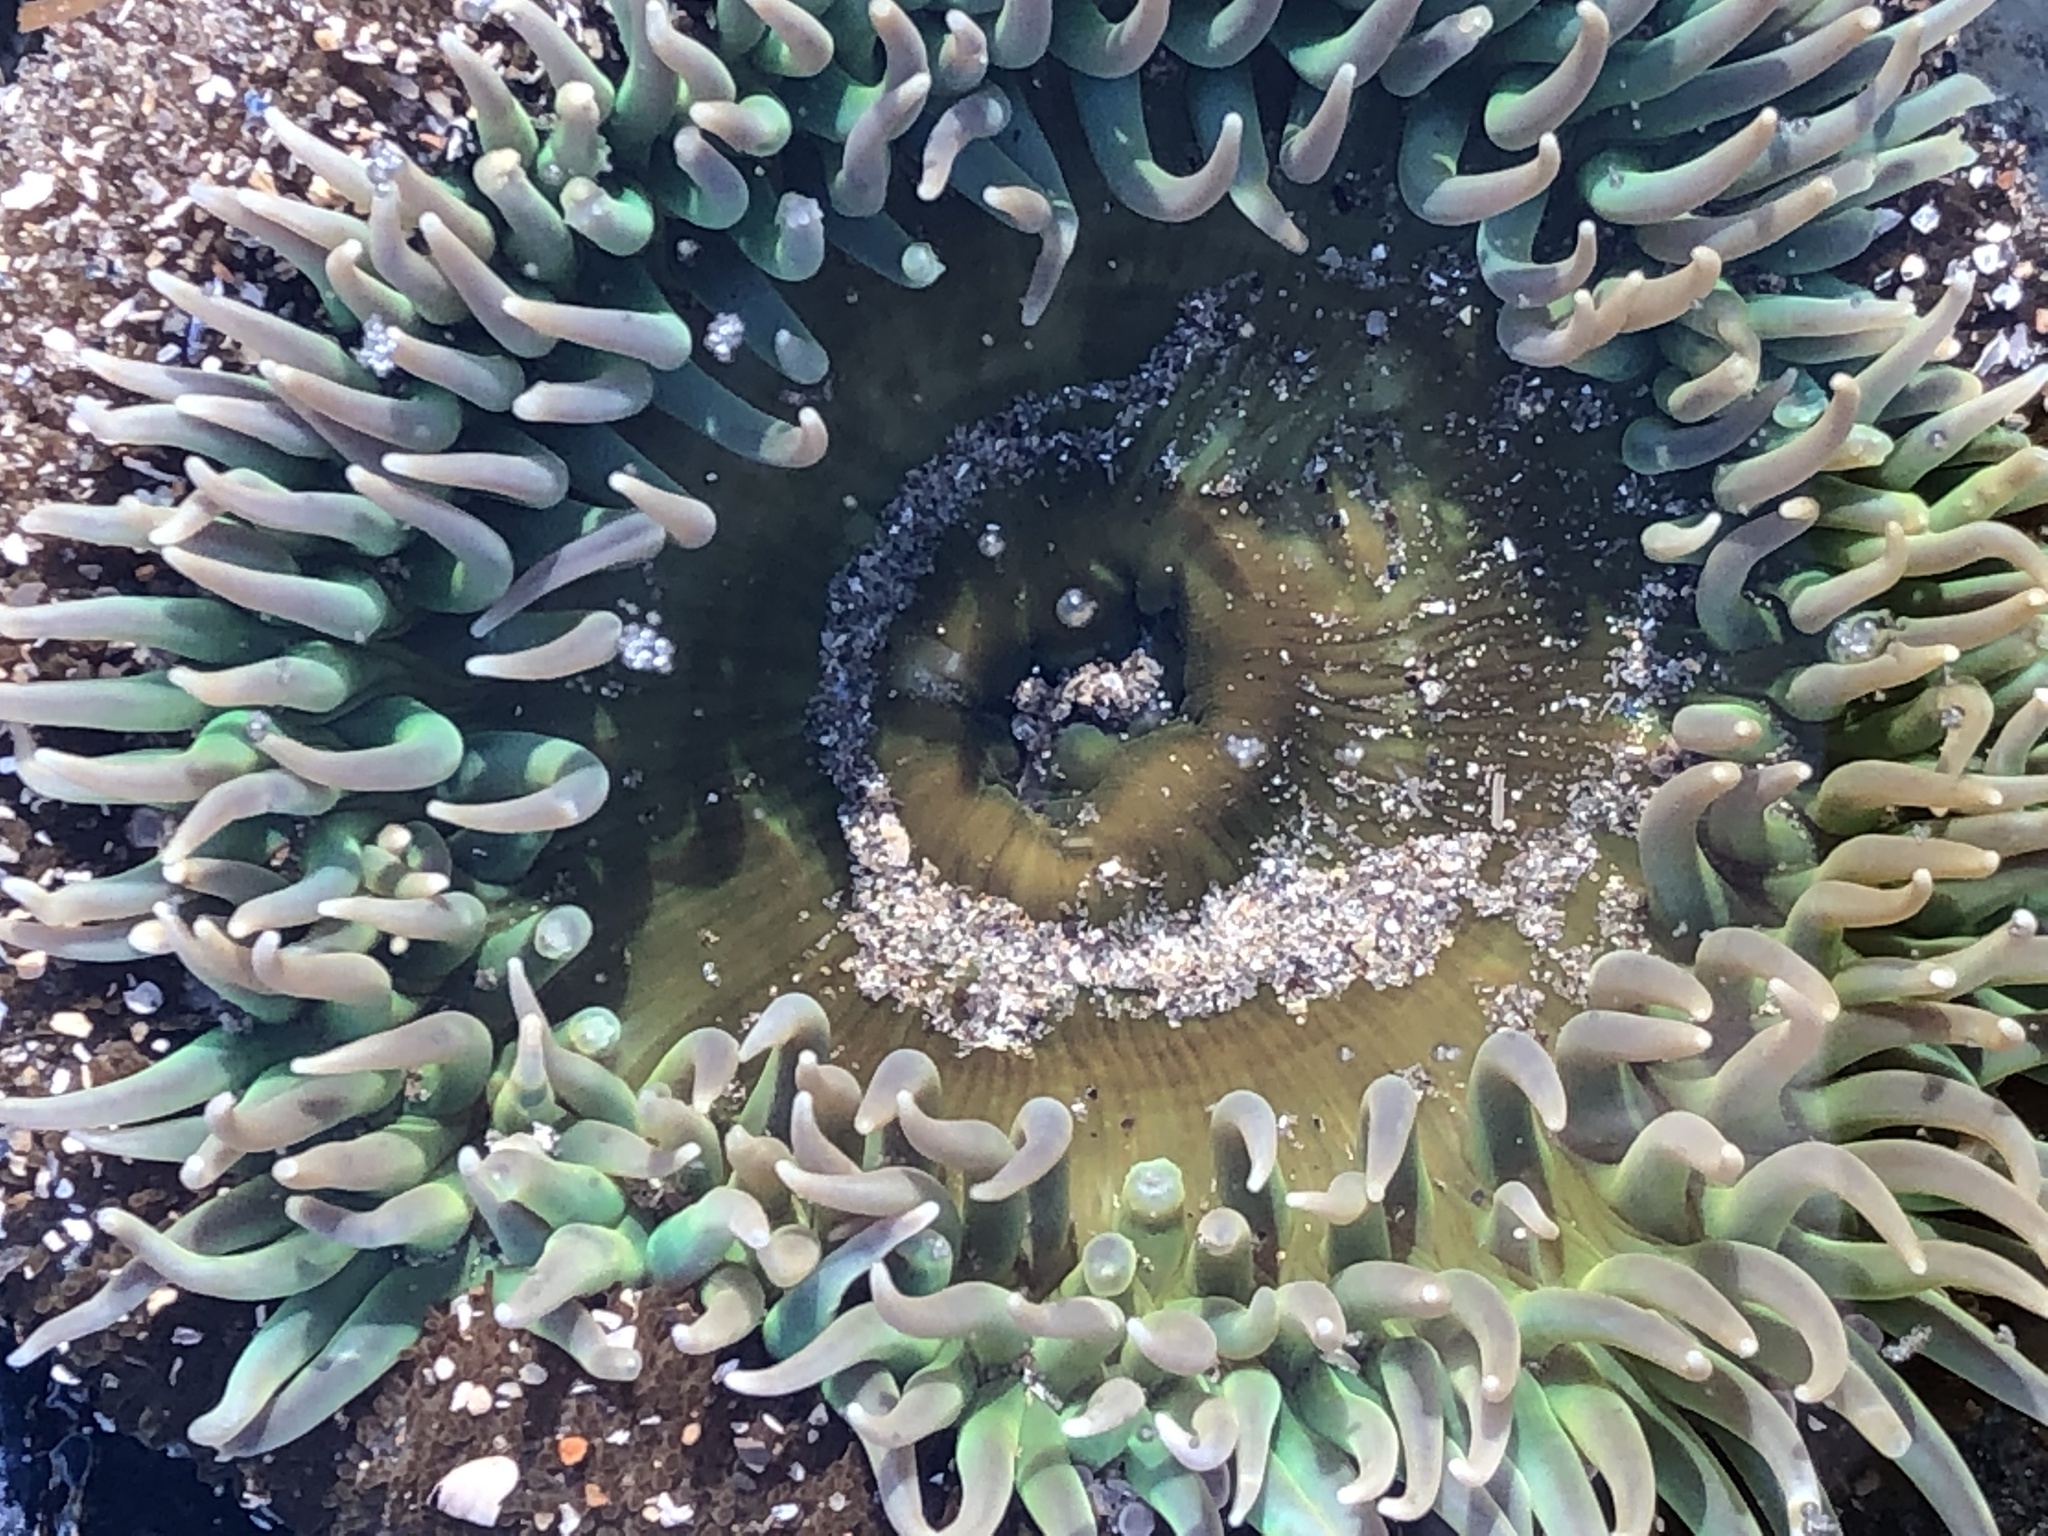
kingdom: Animalia
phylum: Cnidaria
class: Anthozoa
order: Actiniaria
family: Actiniidae
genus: Anthopleura
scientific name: Anthopleura xanthogrammica
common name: Giant green anemone
